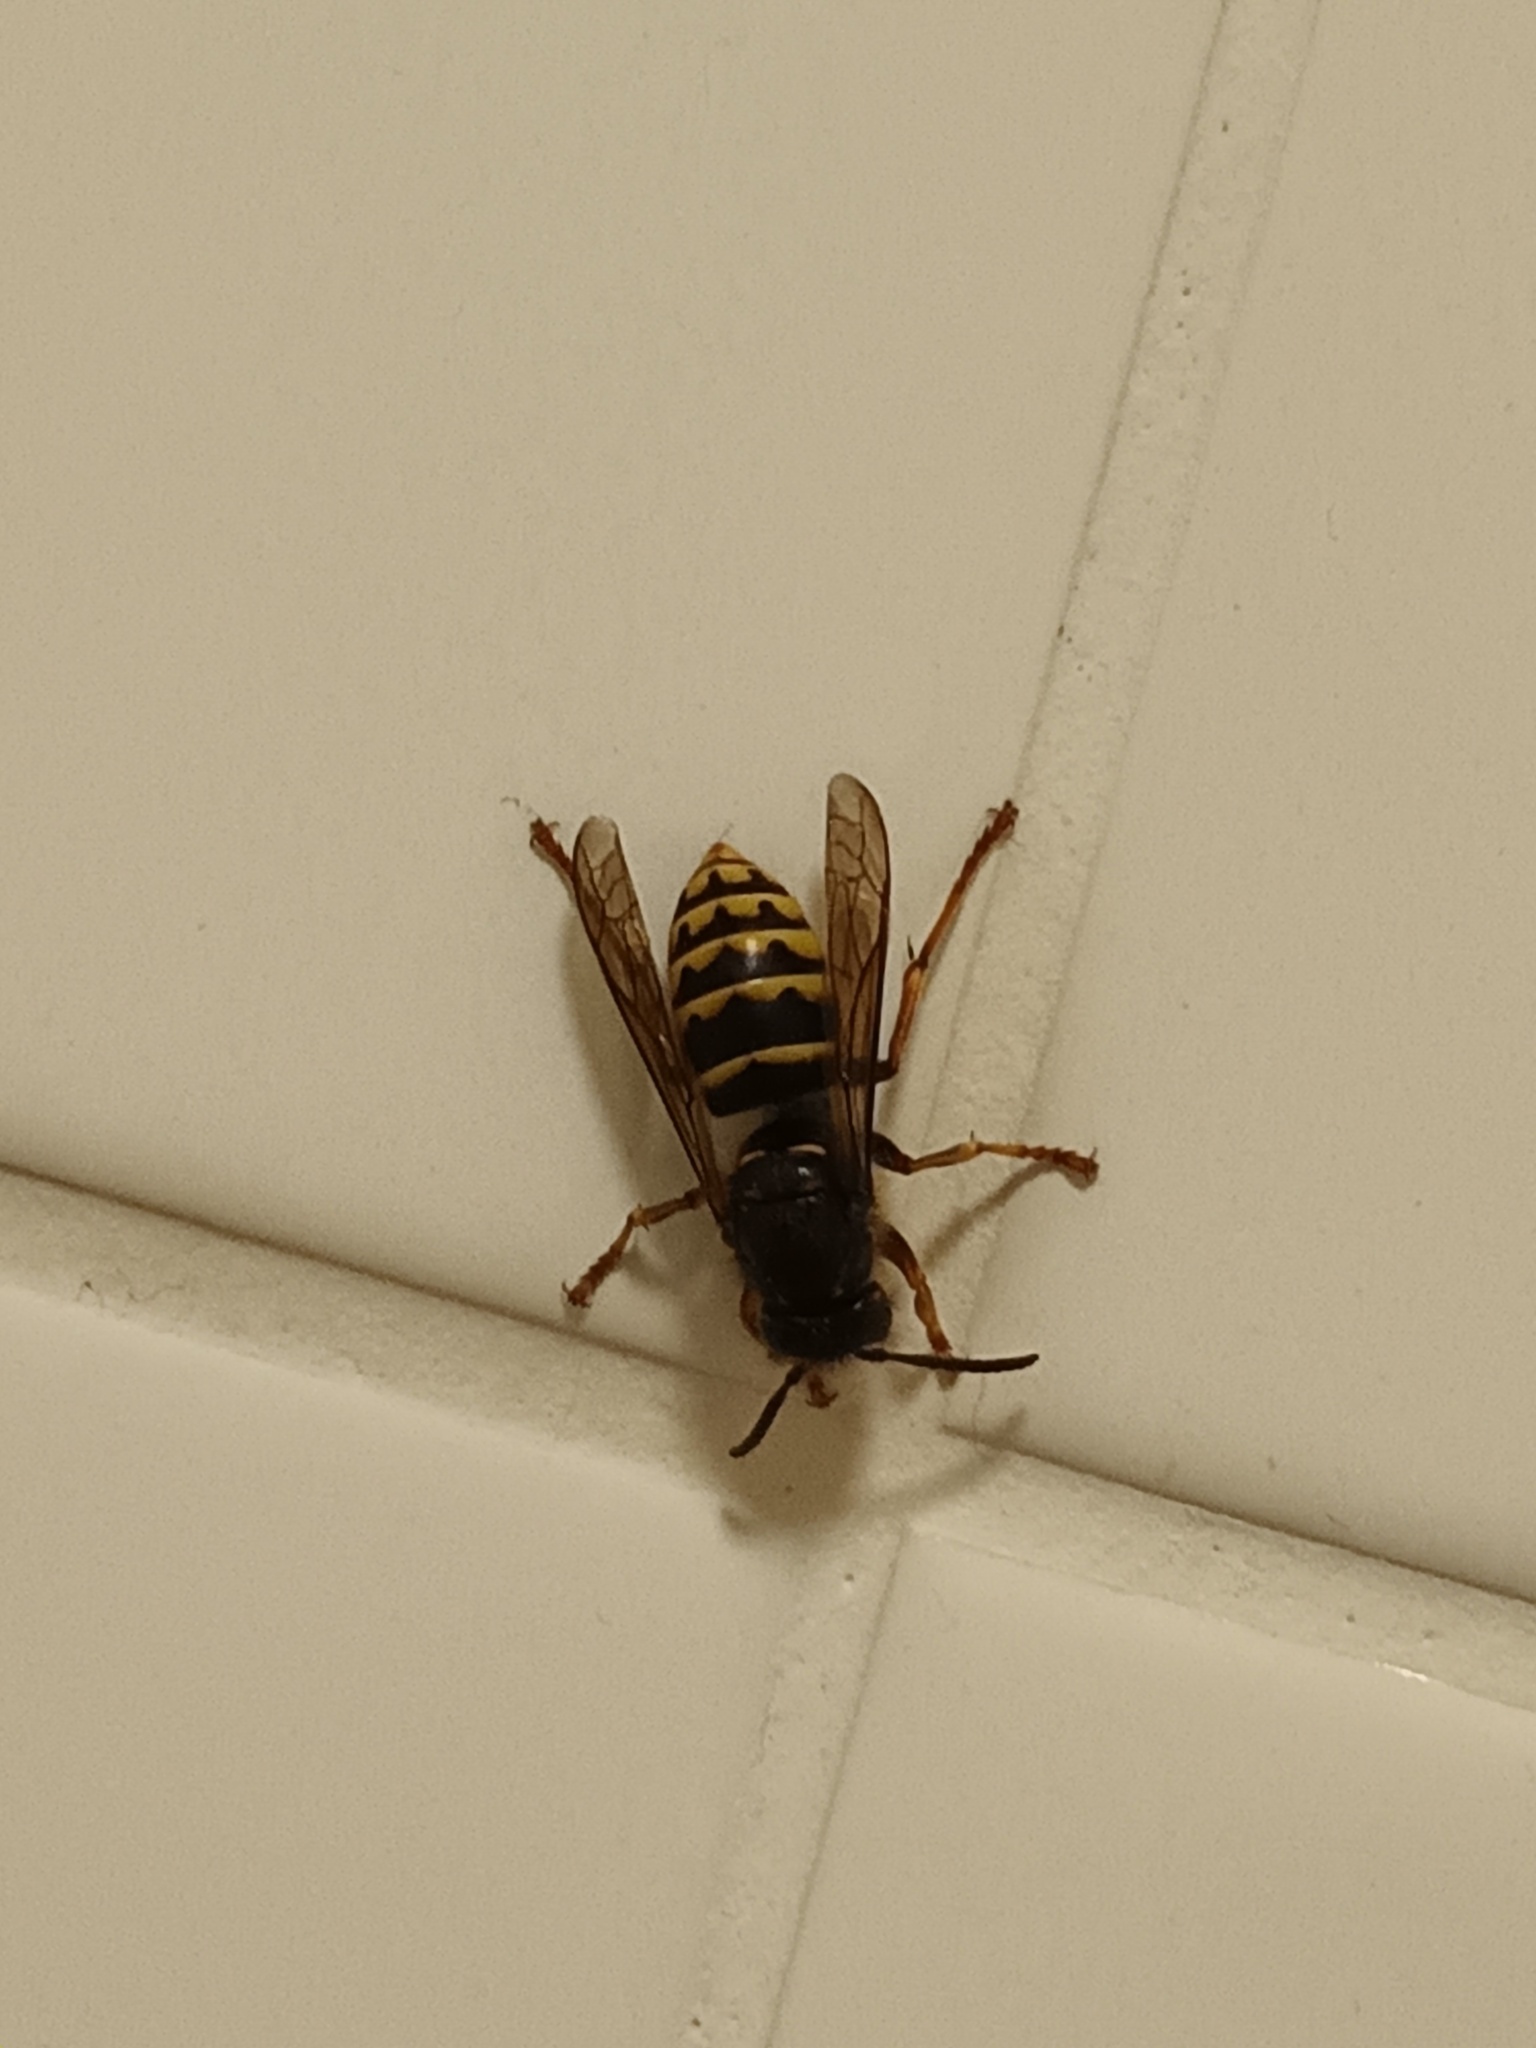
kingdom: Animalia
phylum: Arthropoda
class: Insecta
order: Hymenoptera
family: Vespidae
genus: Dolichovespula
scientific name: Dolichovespula media
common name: Median wasp
